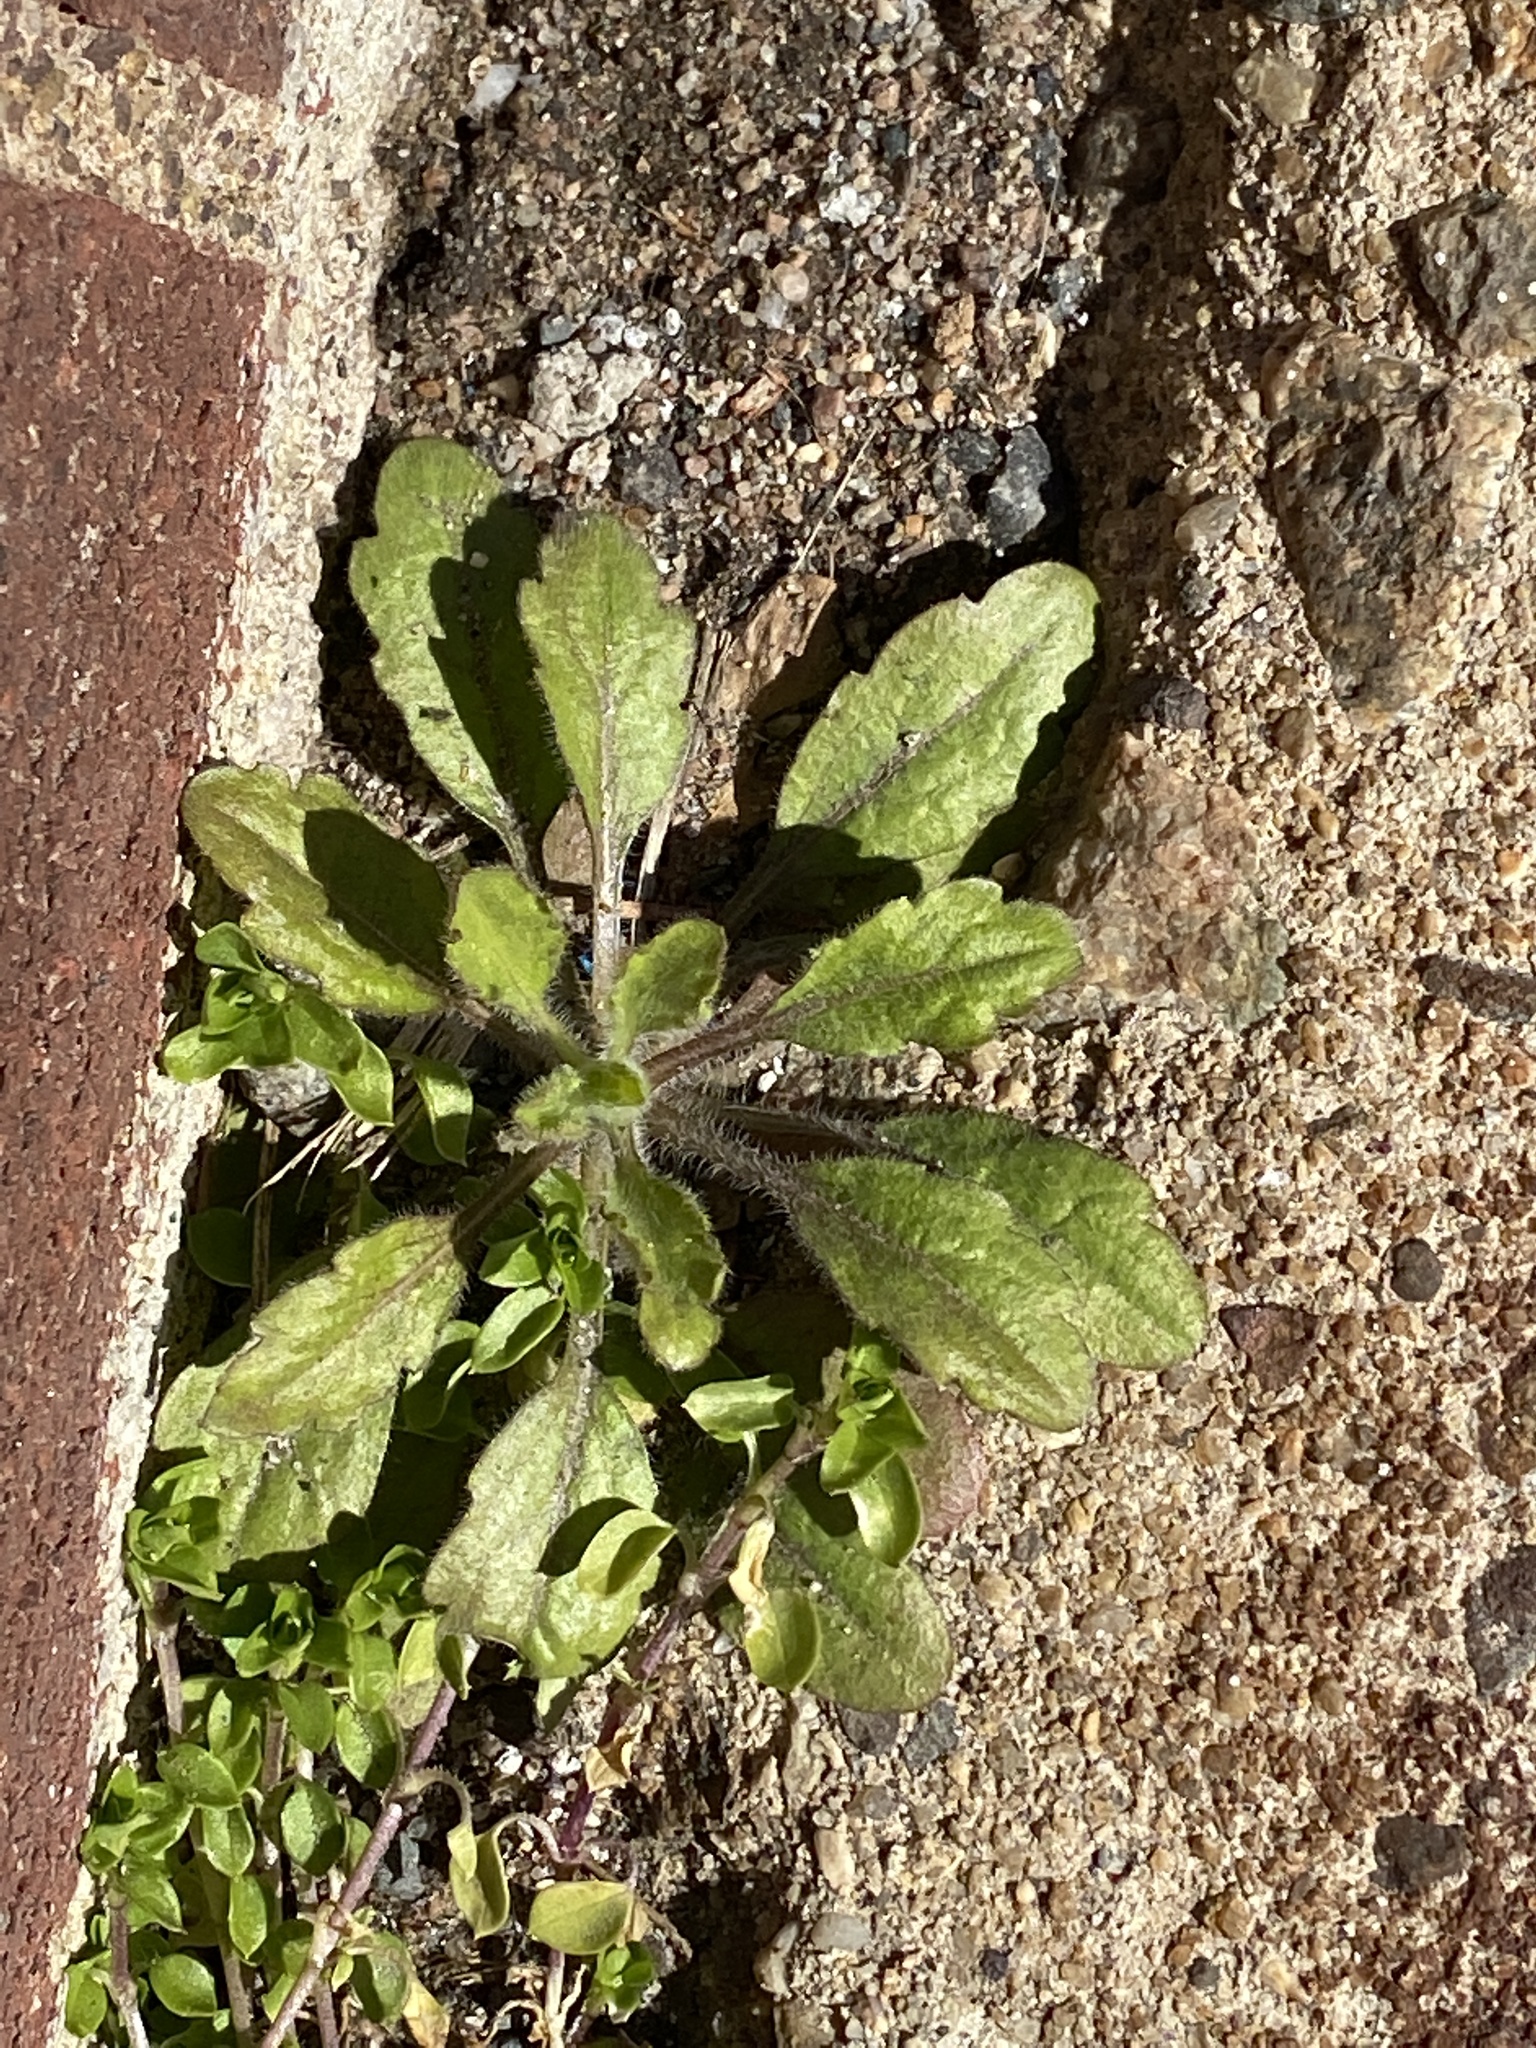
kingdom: Plantae
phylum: Tracheophyta
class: Magnoliopsida
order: Asterales
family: Asteraceae
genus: Erigeron
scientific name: Erigeron canadensis
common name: Canadian fleabane
